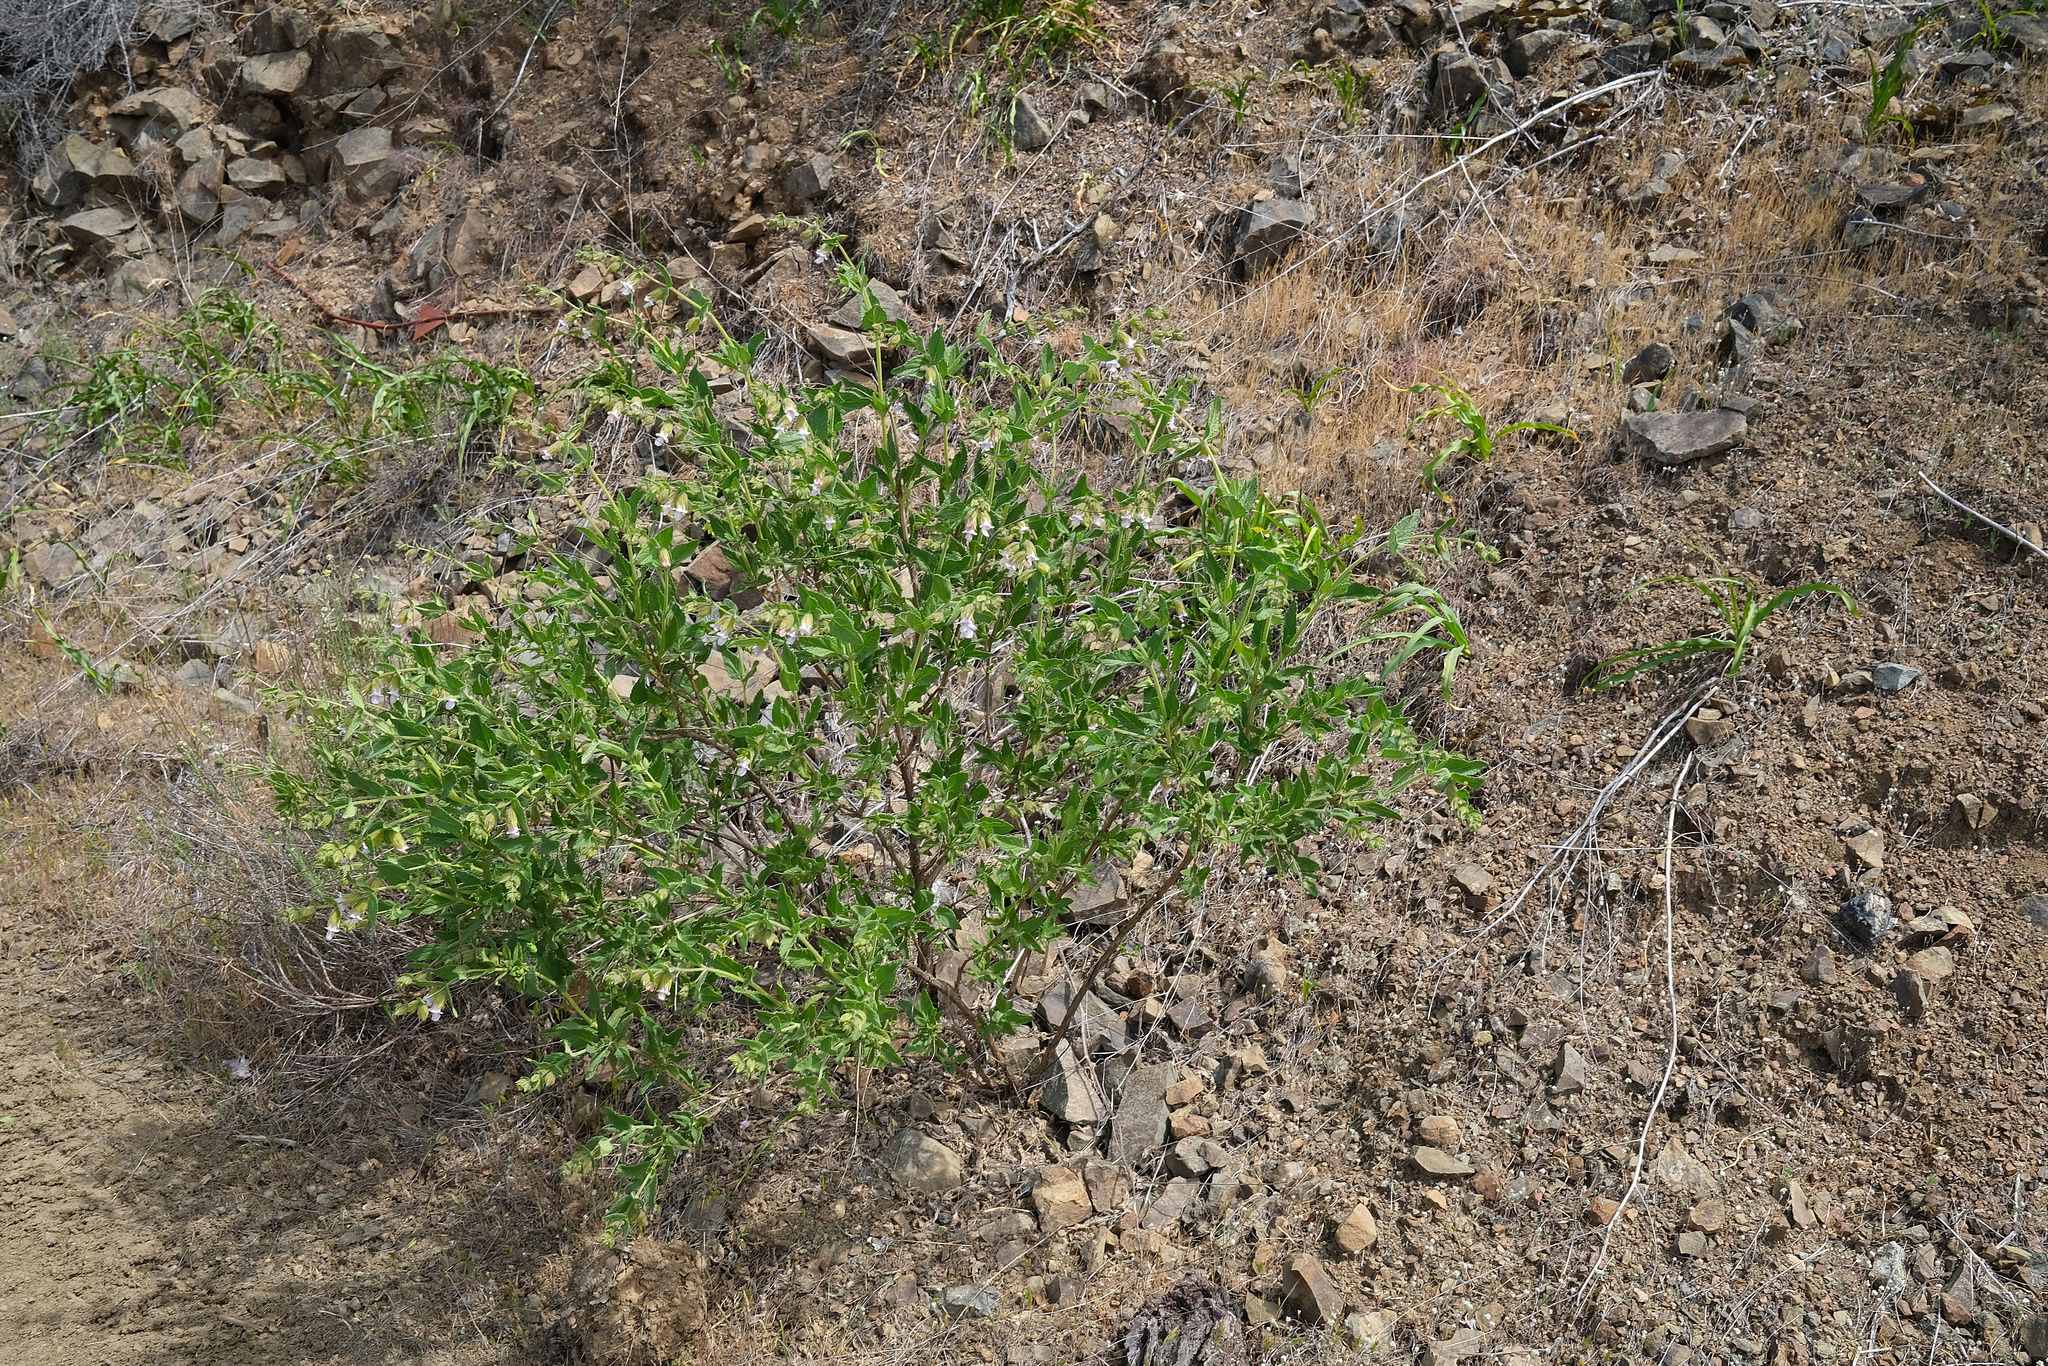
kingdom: Plantae
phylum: Tracheophyta
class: Magnoliopsida
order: Lamiales
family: Lamiaceae
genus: Lepechinia
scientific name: Lepechinia calycina
